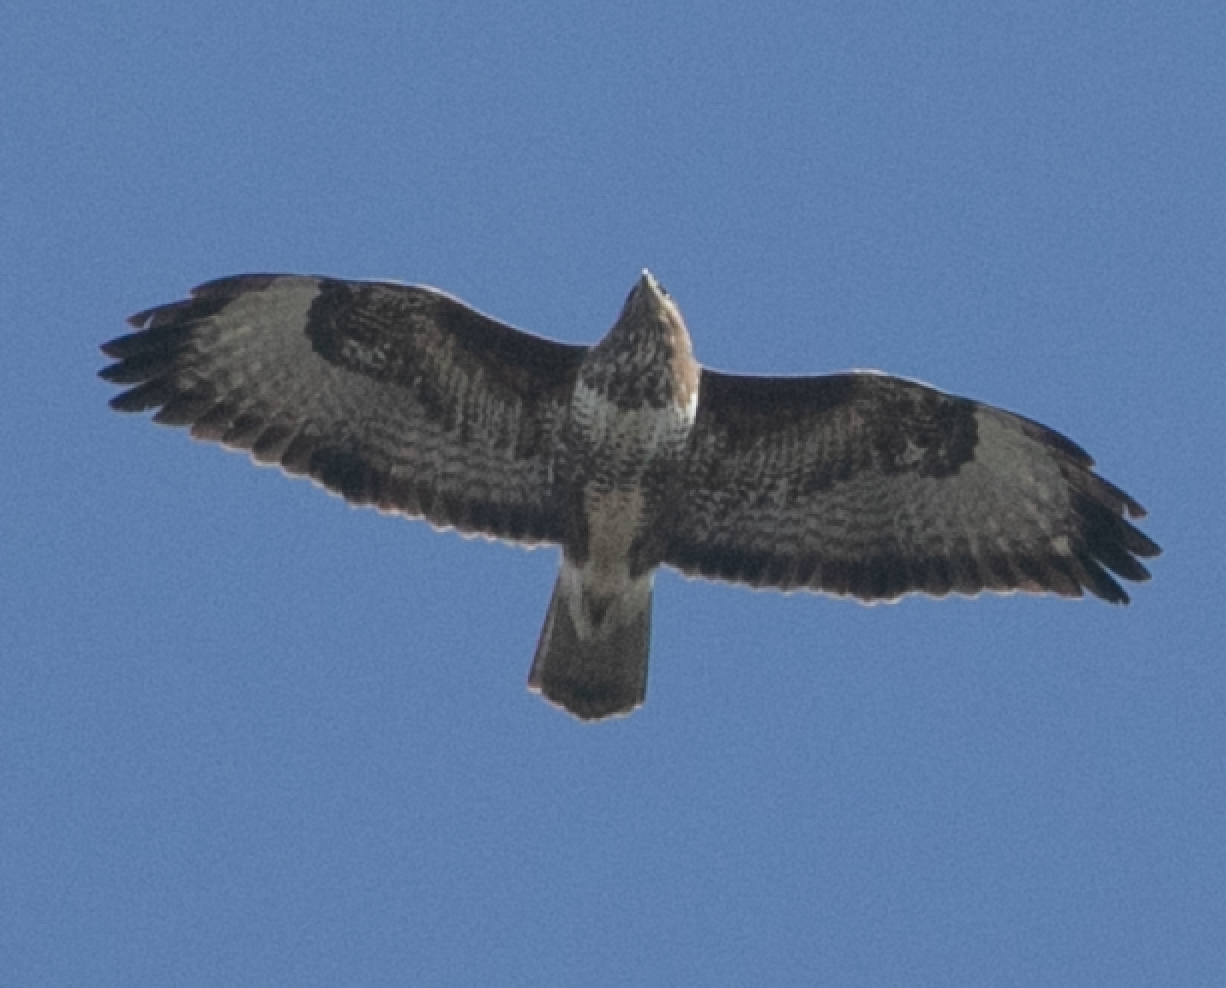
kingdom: Animalia
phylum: Chordata
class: Aves
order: Accipitriformes
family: Accipitridae
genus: Buteo
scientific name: Buteo buteo
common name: Common buzzard
